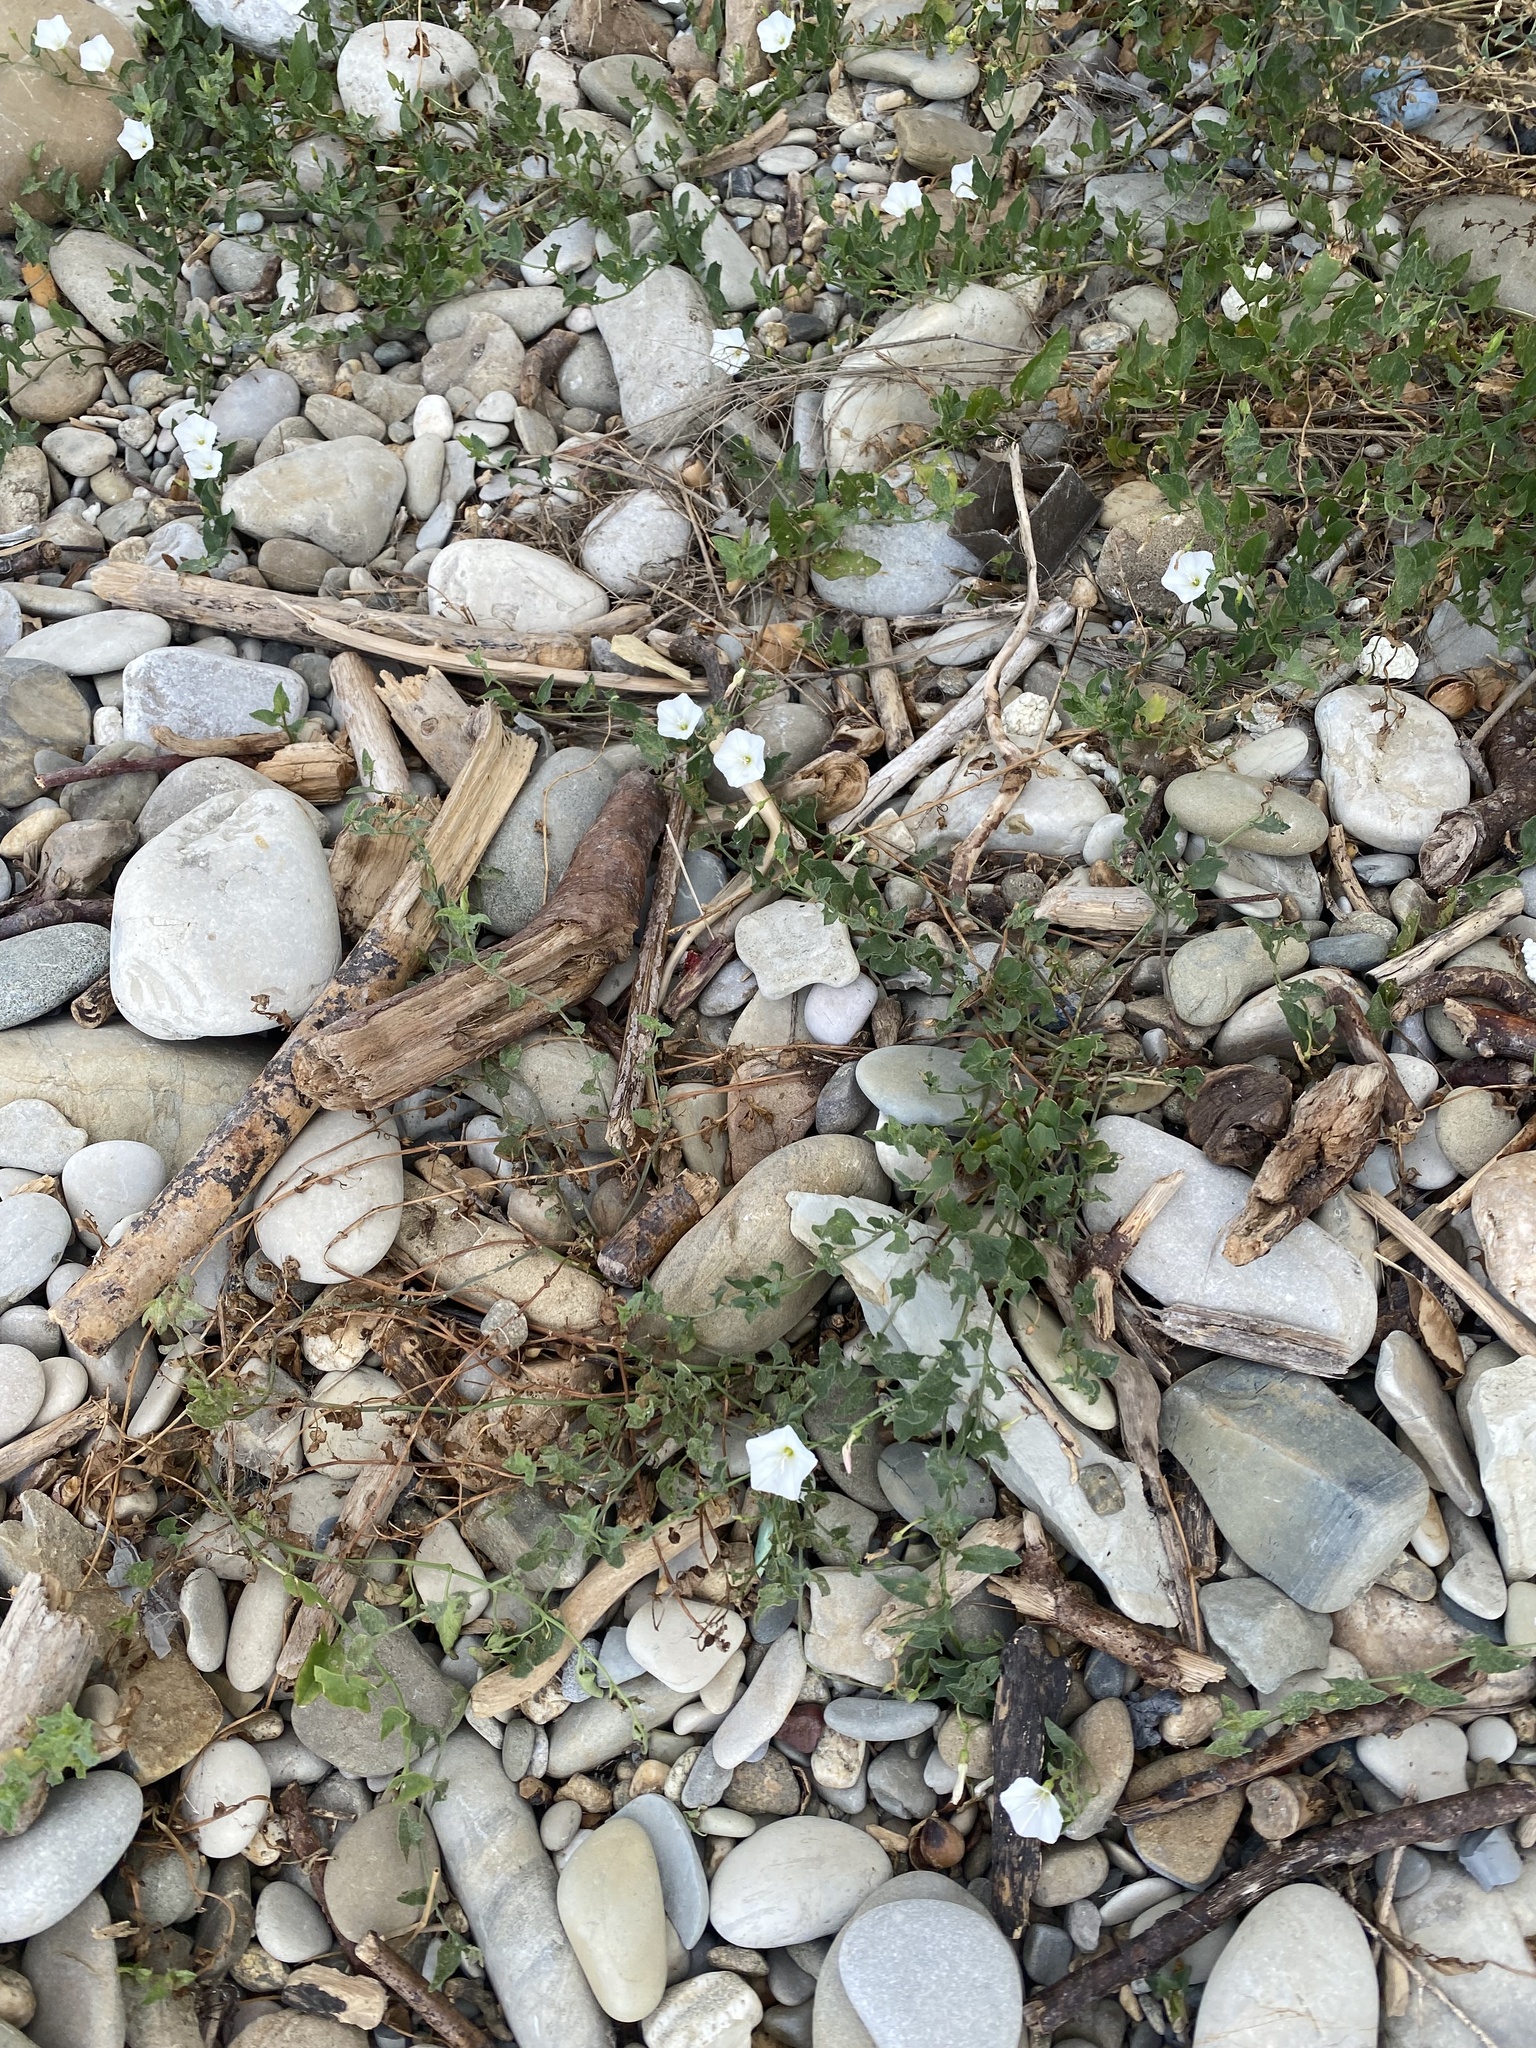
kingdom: Plantae
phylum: Tracheophyta
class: Magnoliopsida
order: Solanales
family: Convolvulaceae
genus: Convolvulus
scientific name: Convolvulus arvensis
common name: Field bindweed
